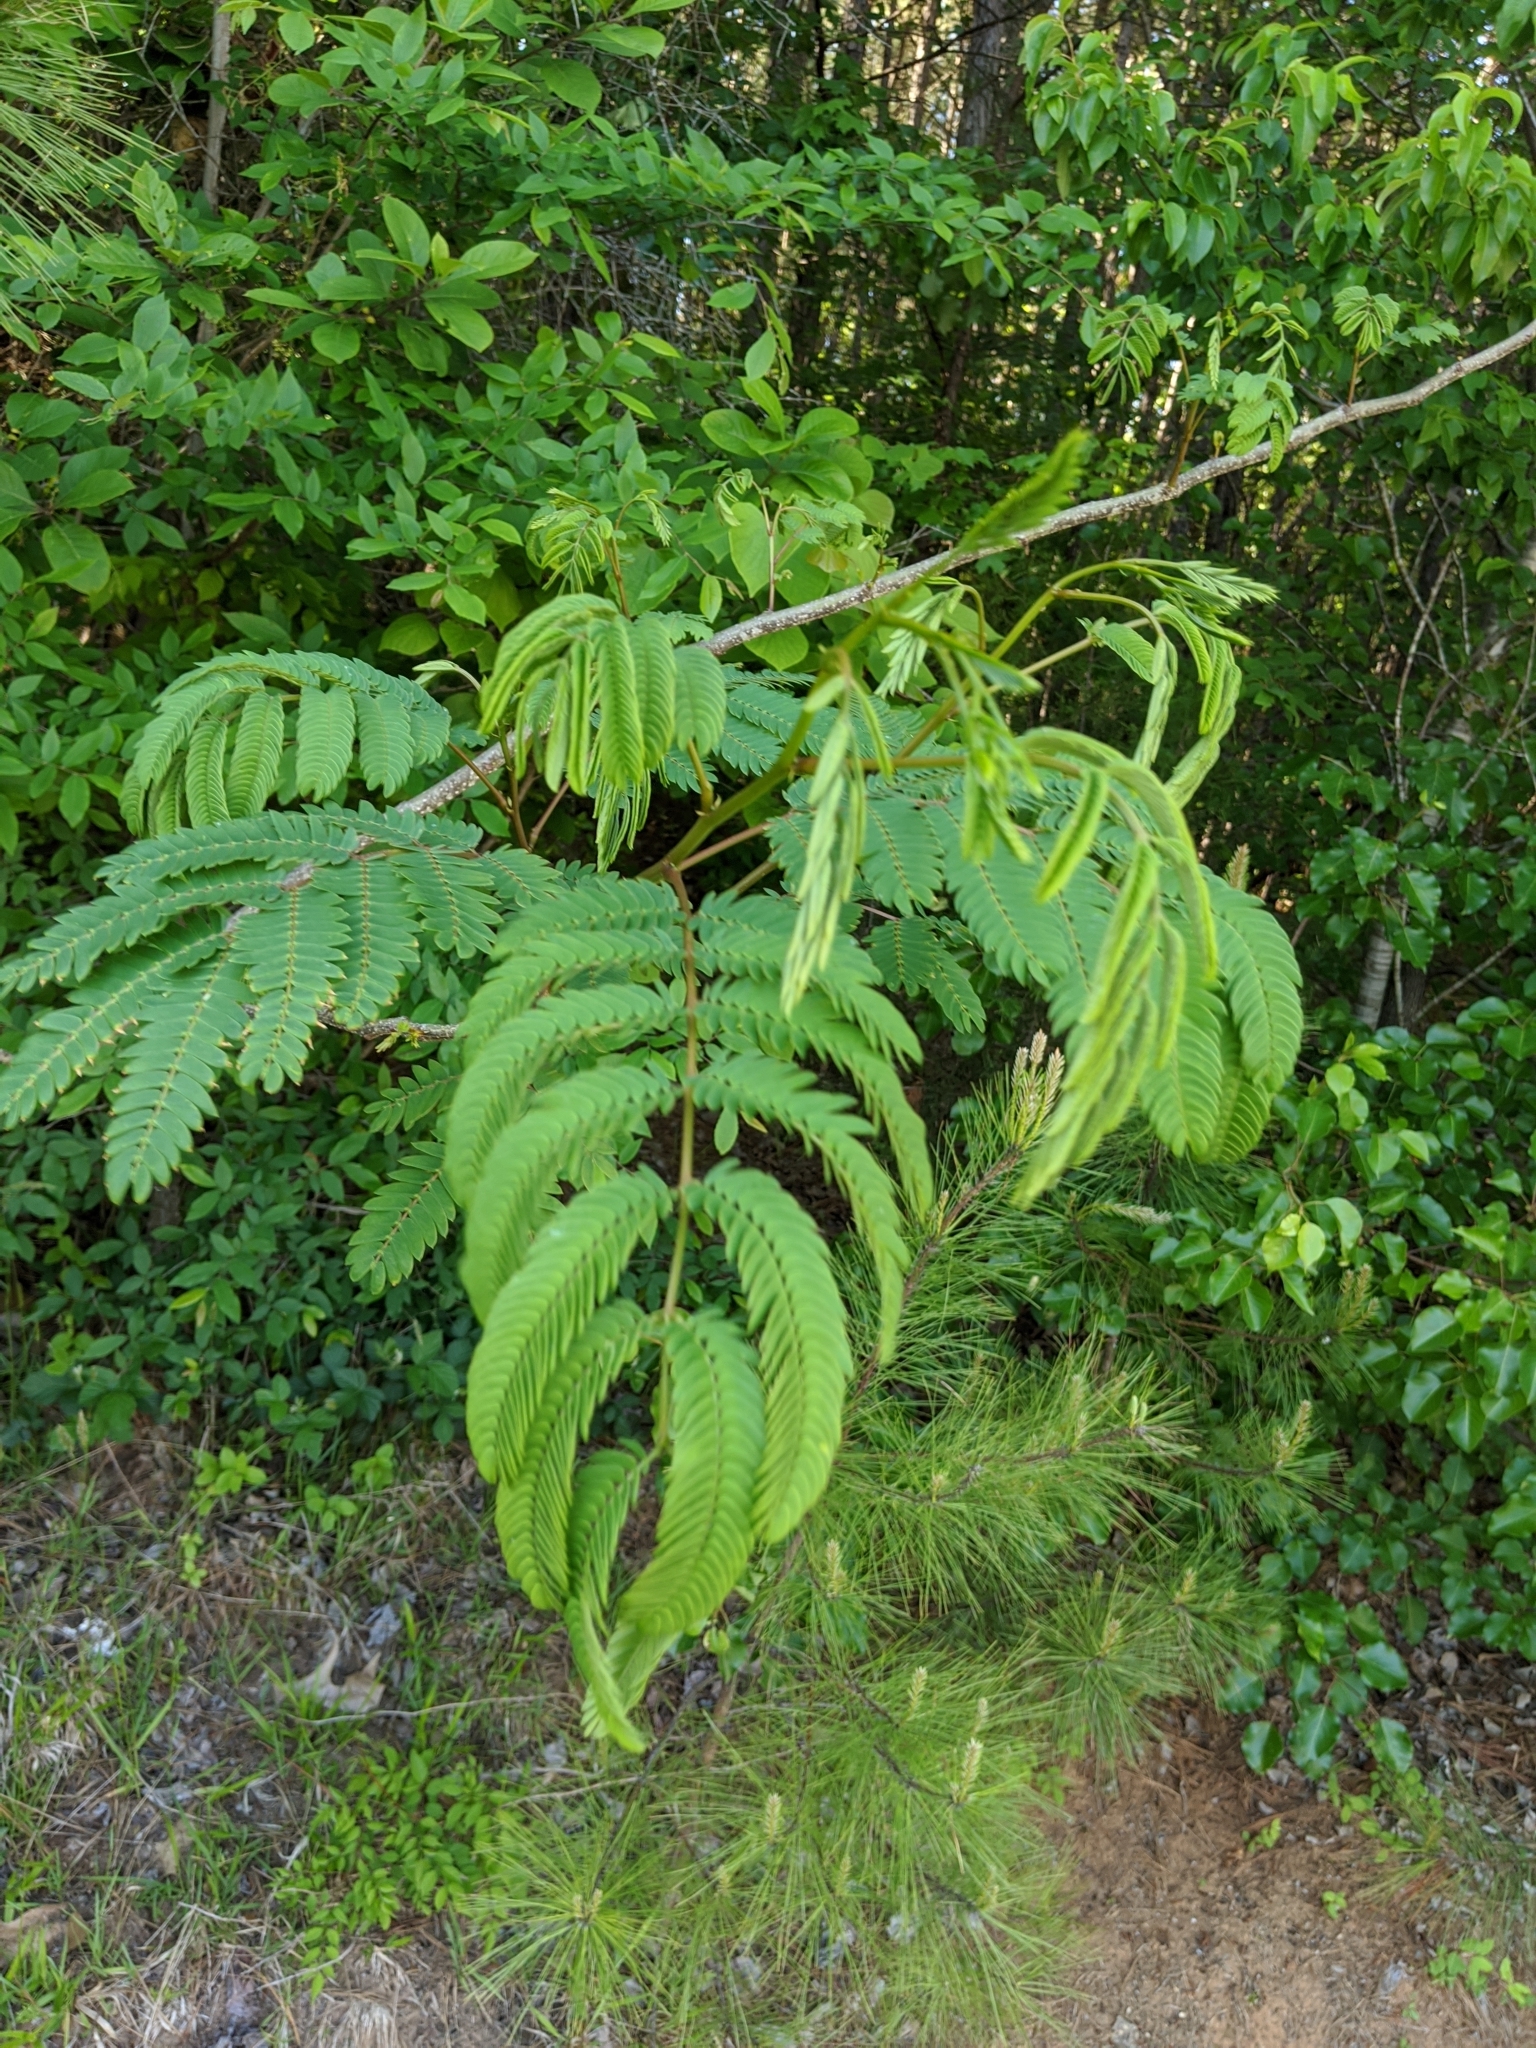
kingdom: Plantae
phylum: Tracheophyta
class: Magnoliopsida
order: Fabales
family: Fabaceae
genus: Albizia
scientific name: Albizia julibrissin
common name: Silktree
